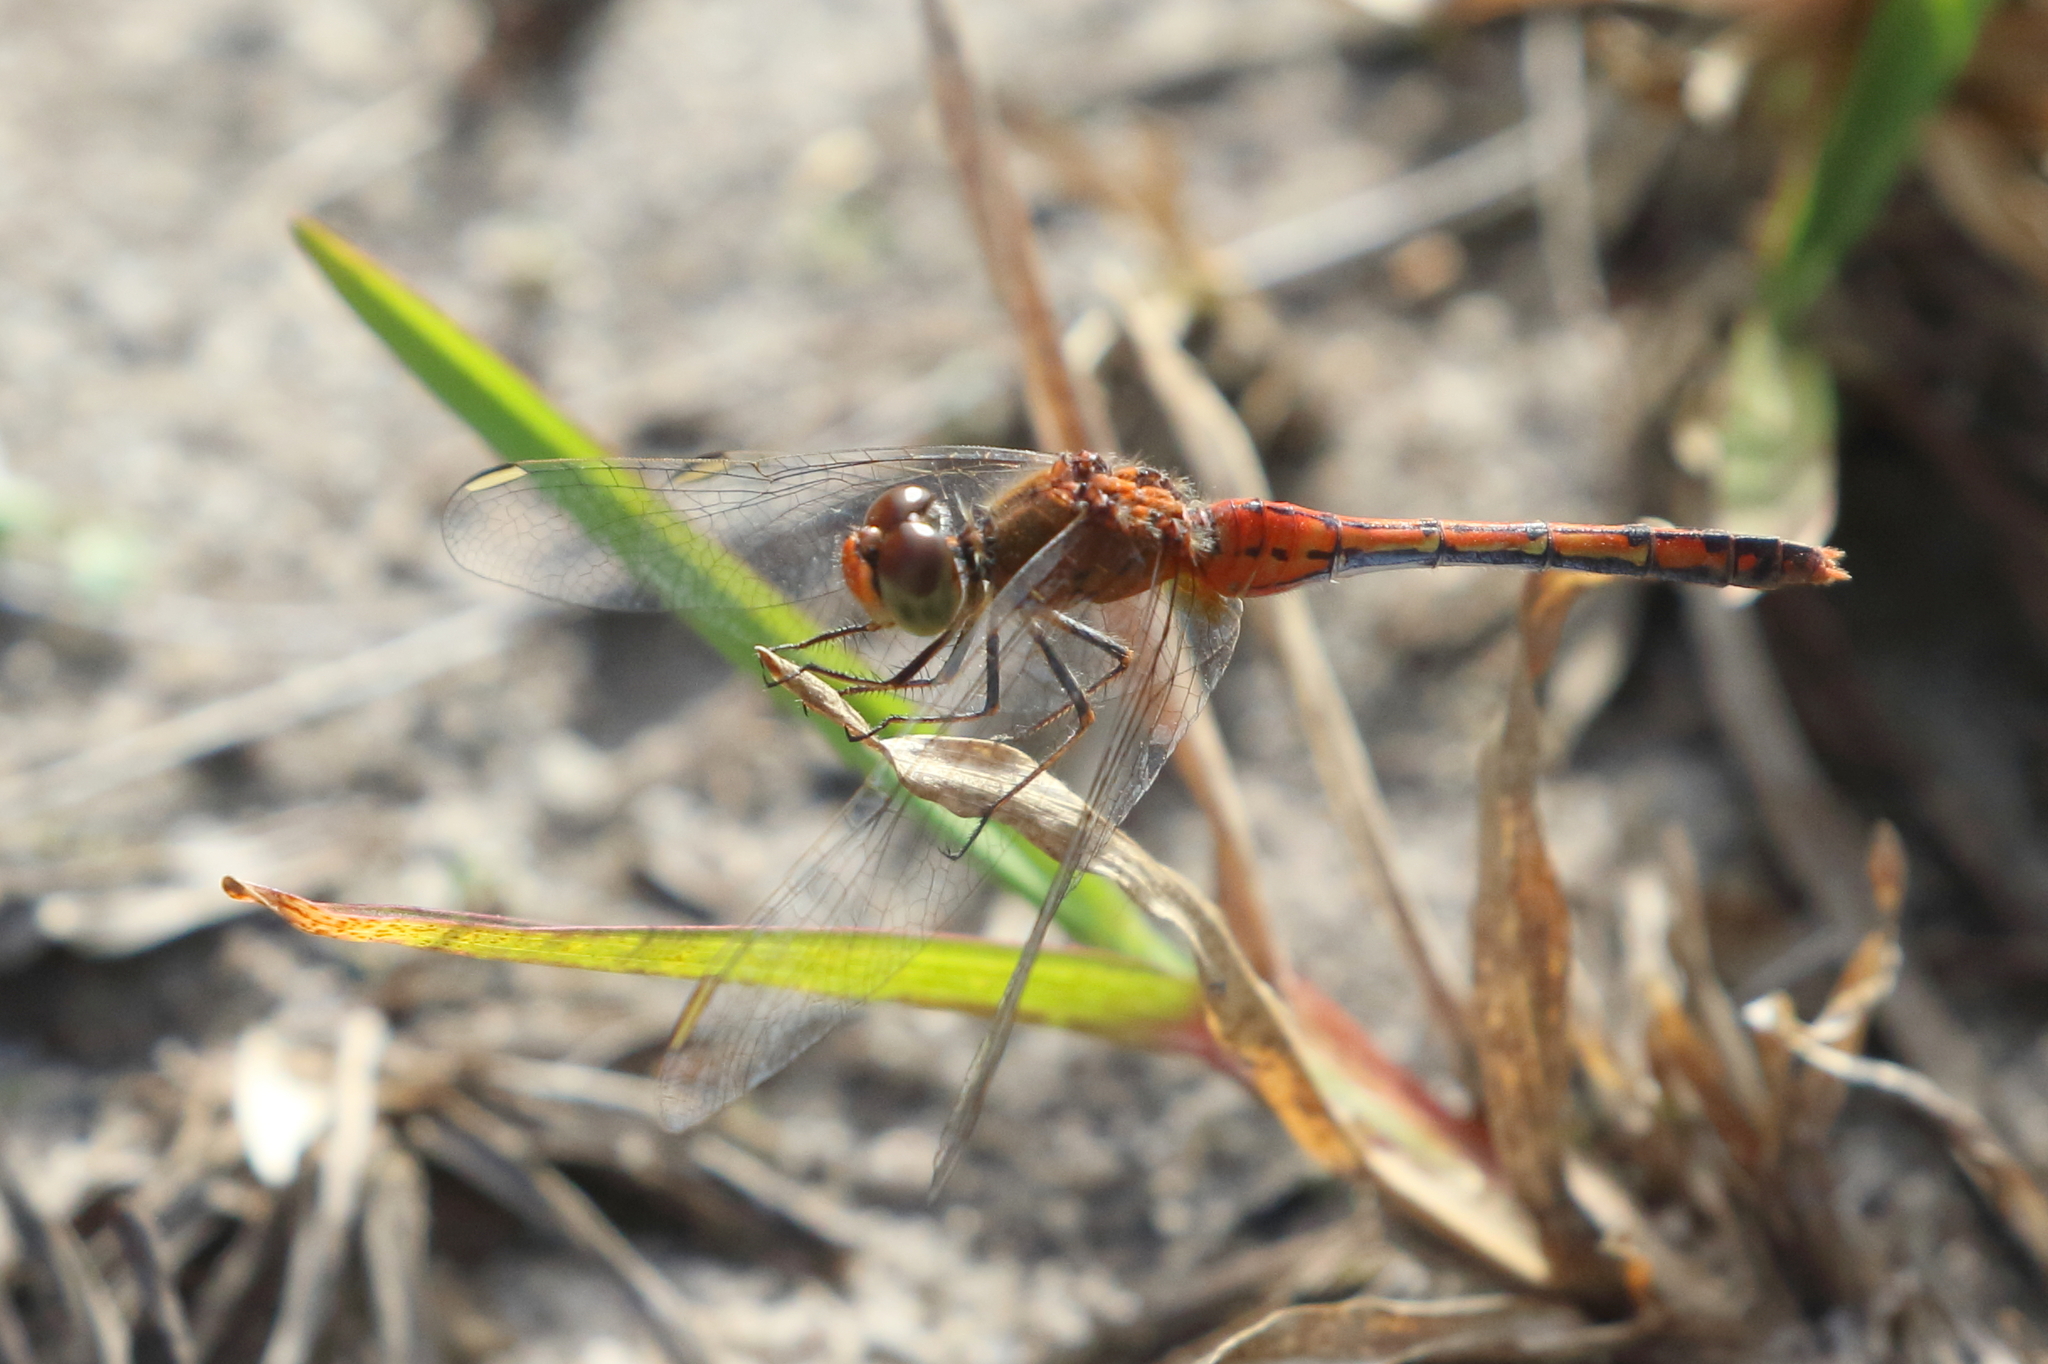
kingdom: Animalia
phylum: Arthropoda
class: Insecta
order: Odonata
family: Libellulidae
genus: Diplacodes
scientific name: Diplacodes bipunctata
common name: Red percher dragonfly
